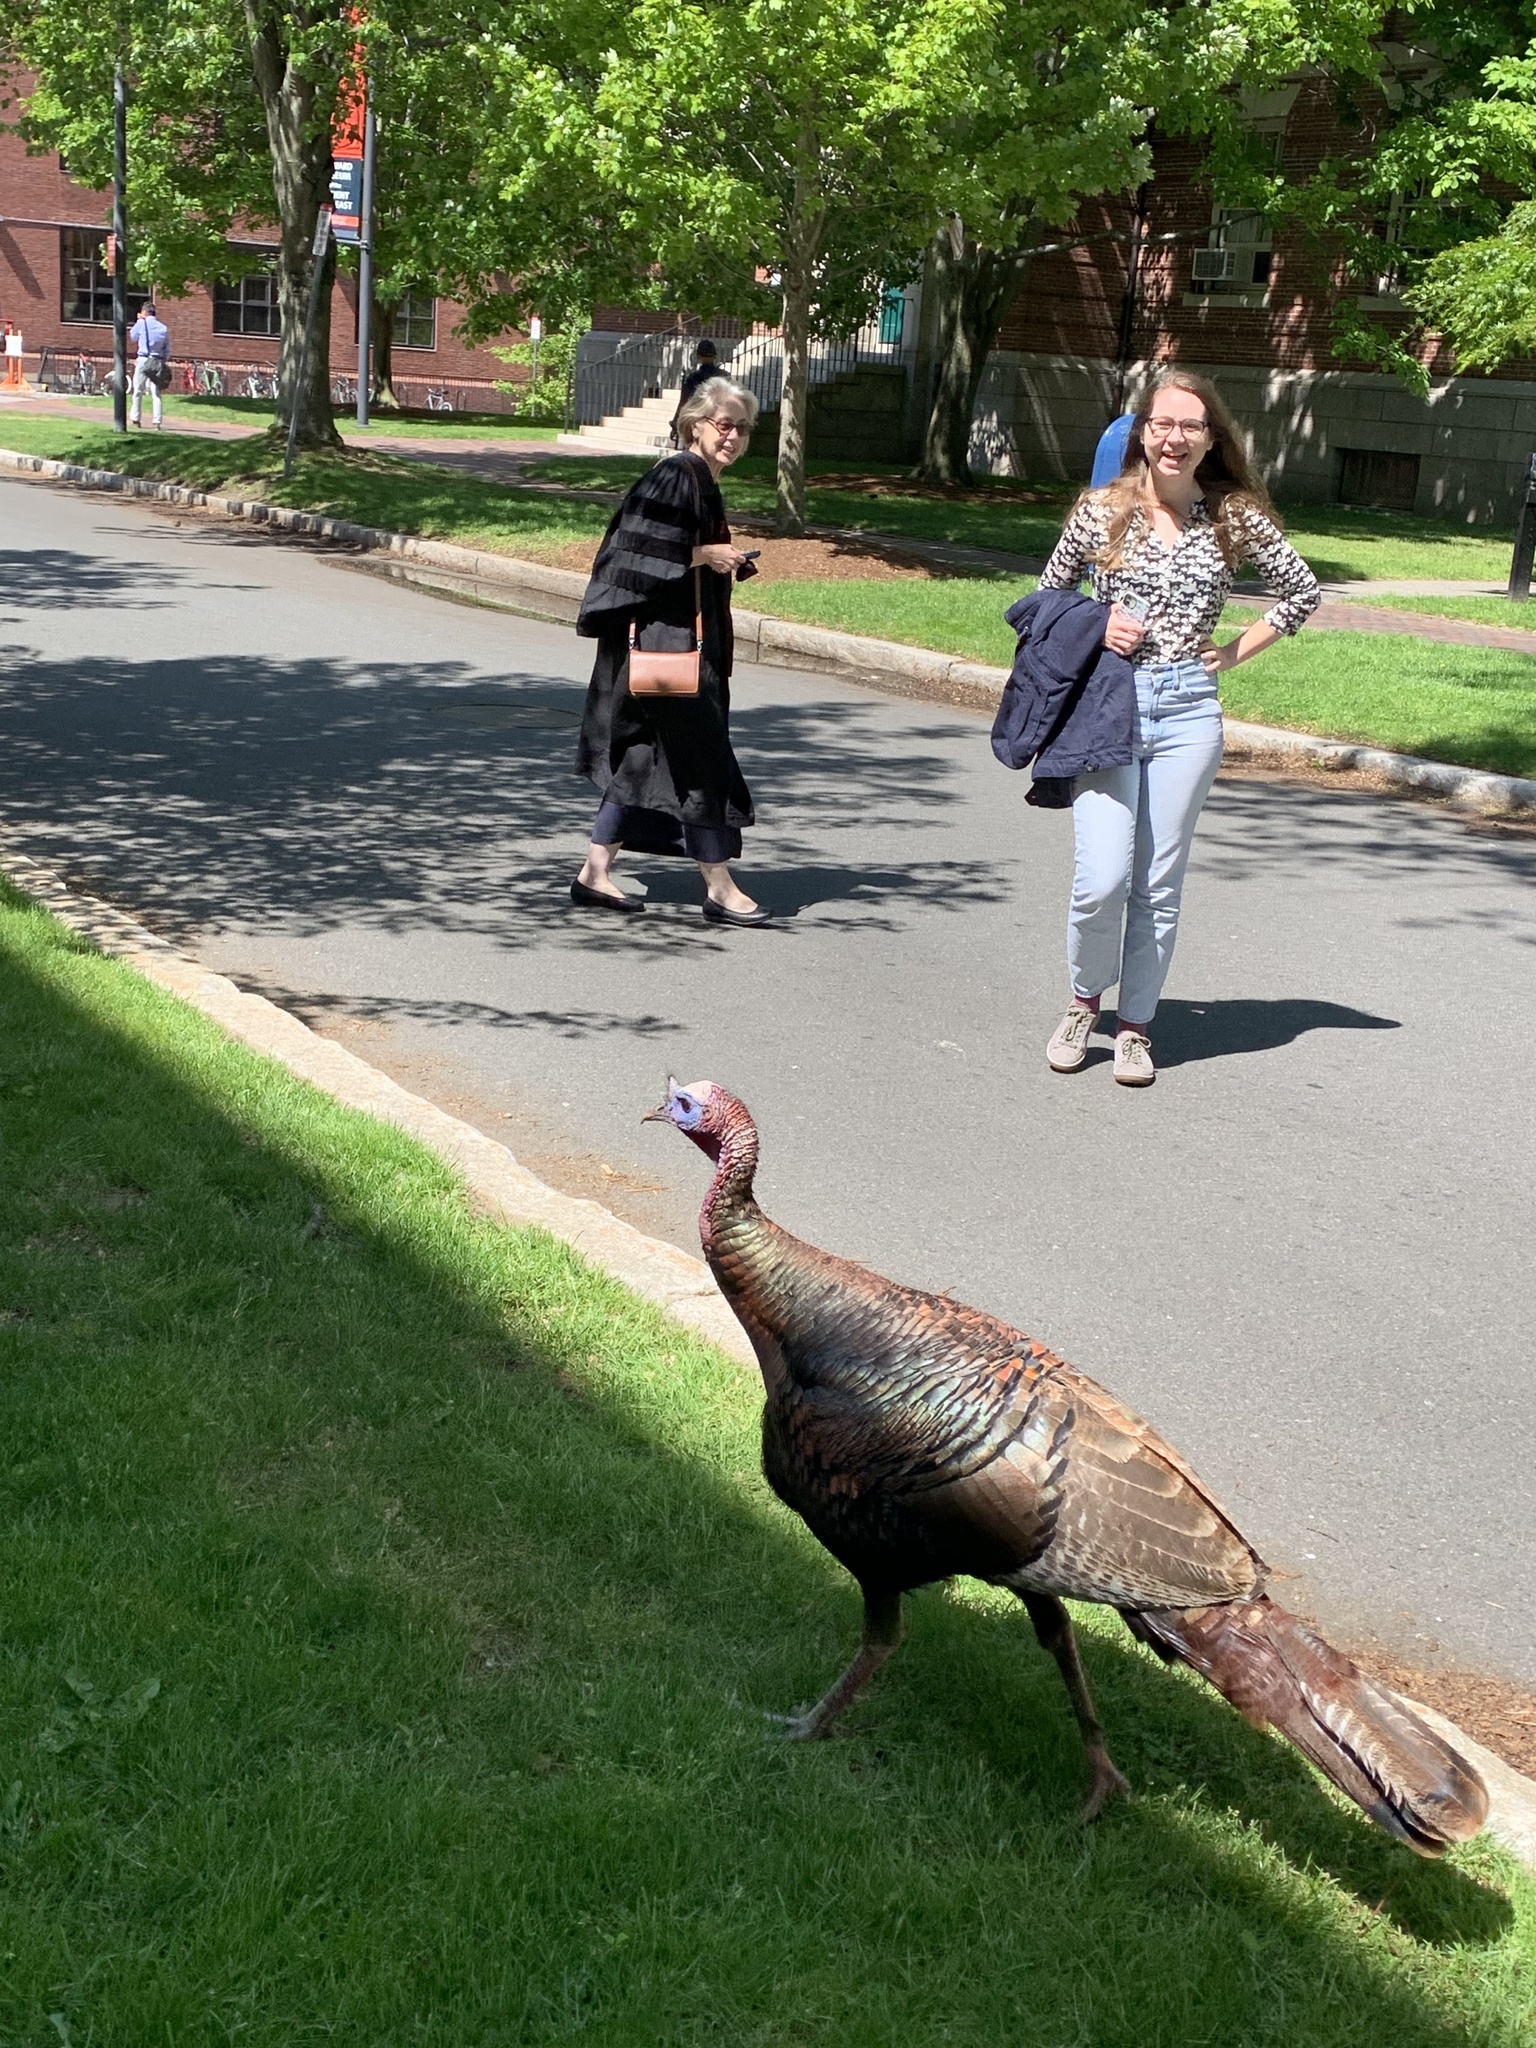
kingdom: Animalia
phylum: Chordata
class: Aves
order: Galliformes
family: Phasianidae
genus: Meleagris
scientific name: Meleagris gallopavo
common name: Wild turkey
